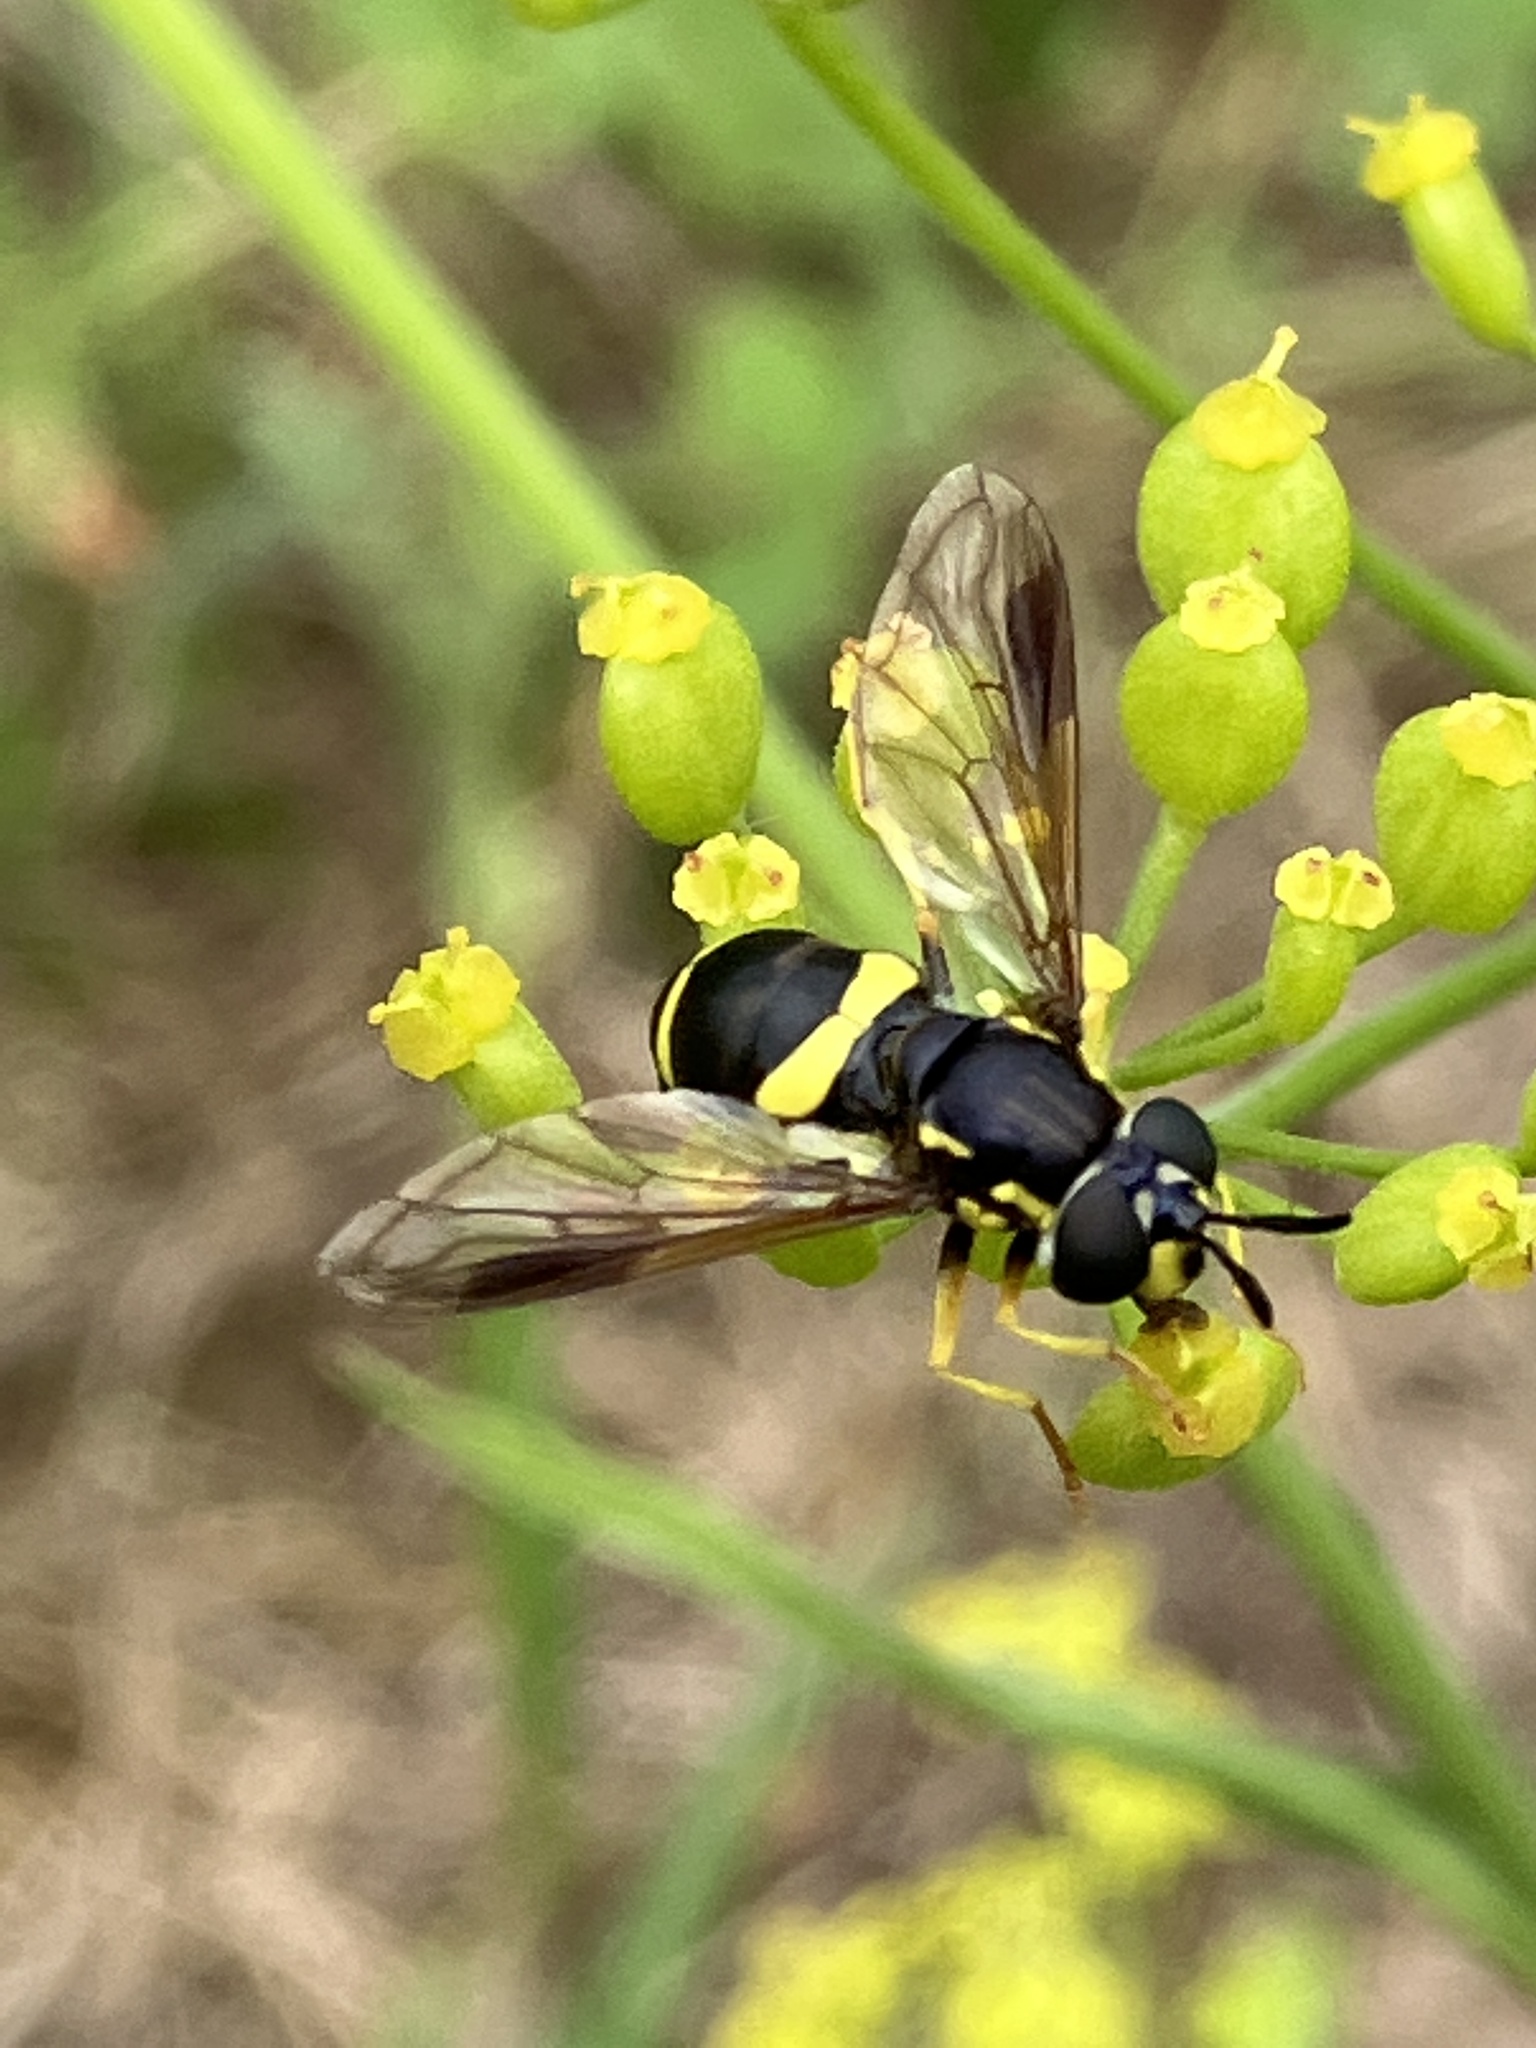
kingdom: Animalia
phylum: Arthropoda
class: Insecta
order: Diptera
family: Syrphidae
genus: Chrysotoxum
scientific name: Chrysotoxum bicincta
